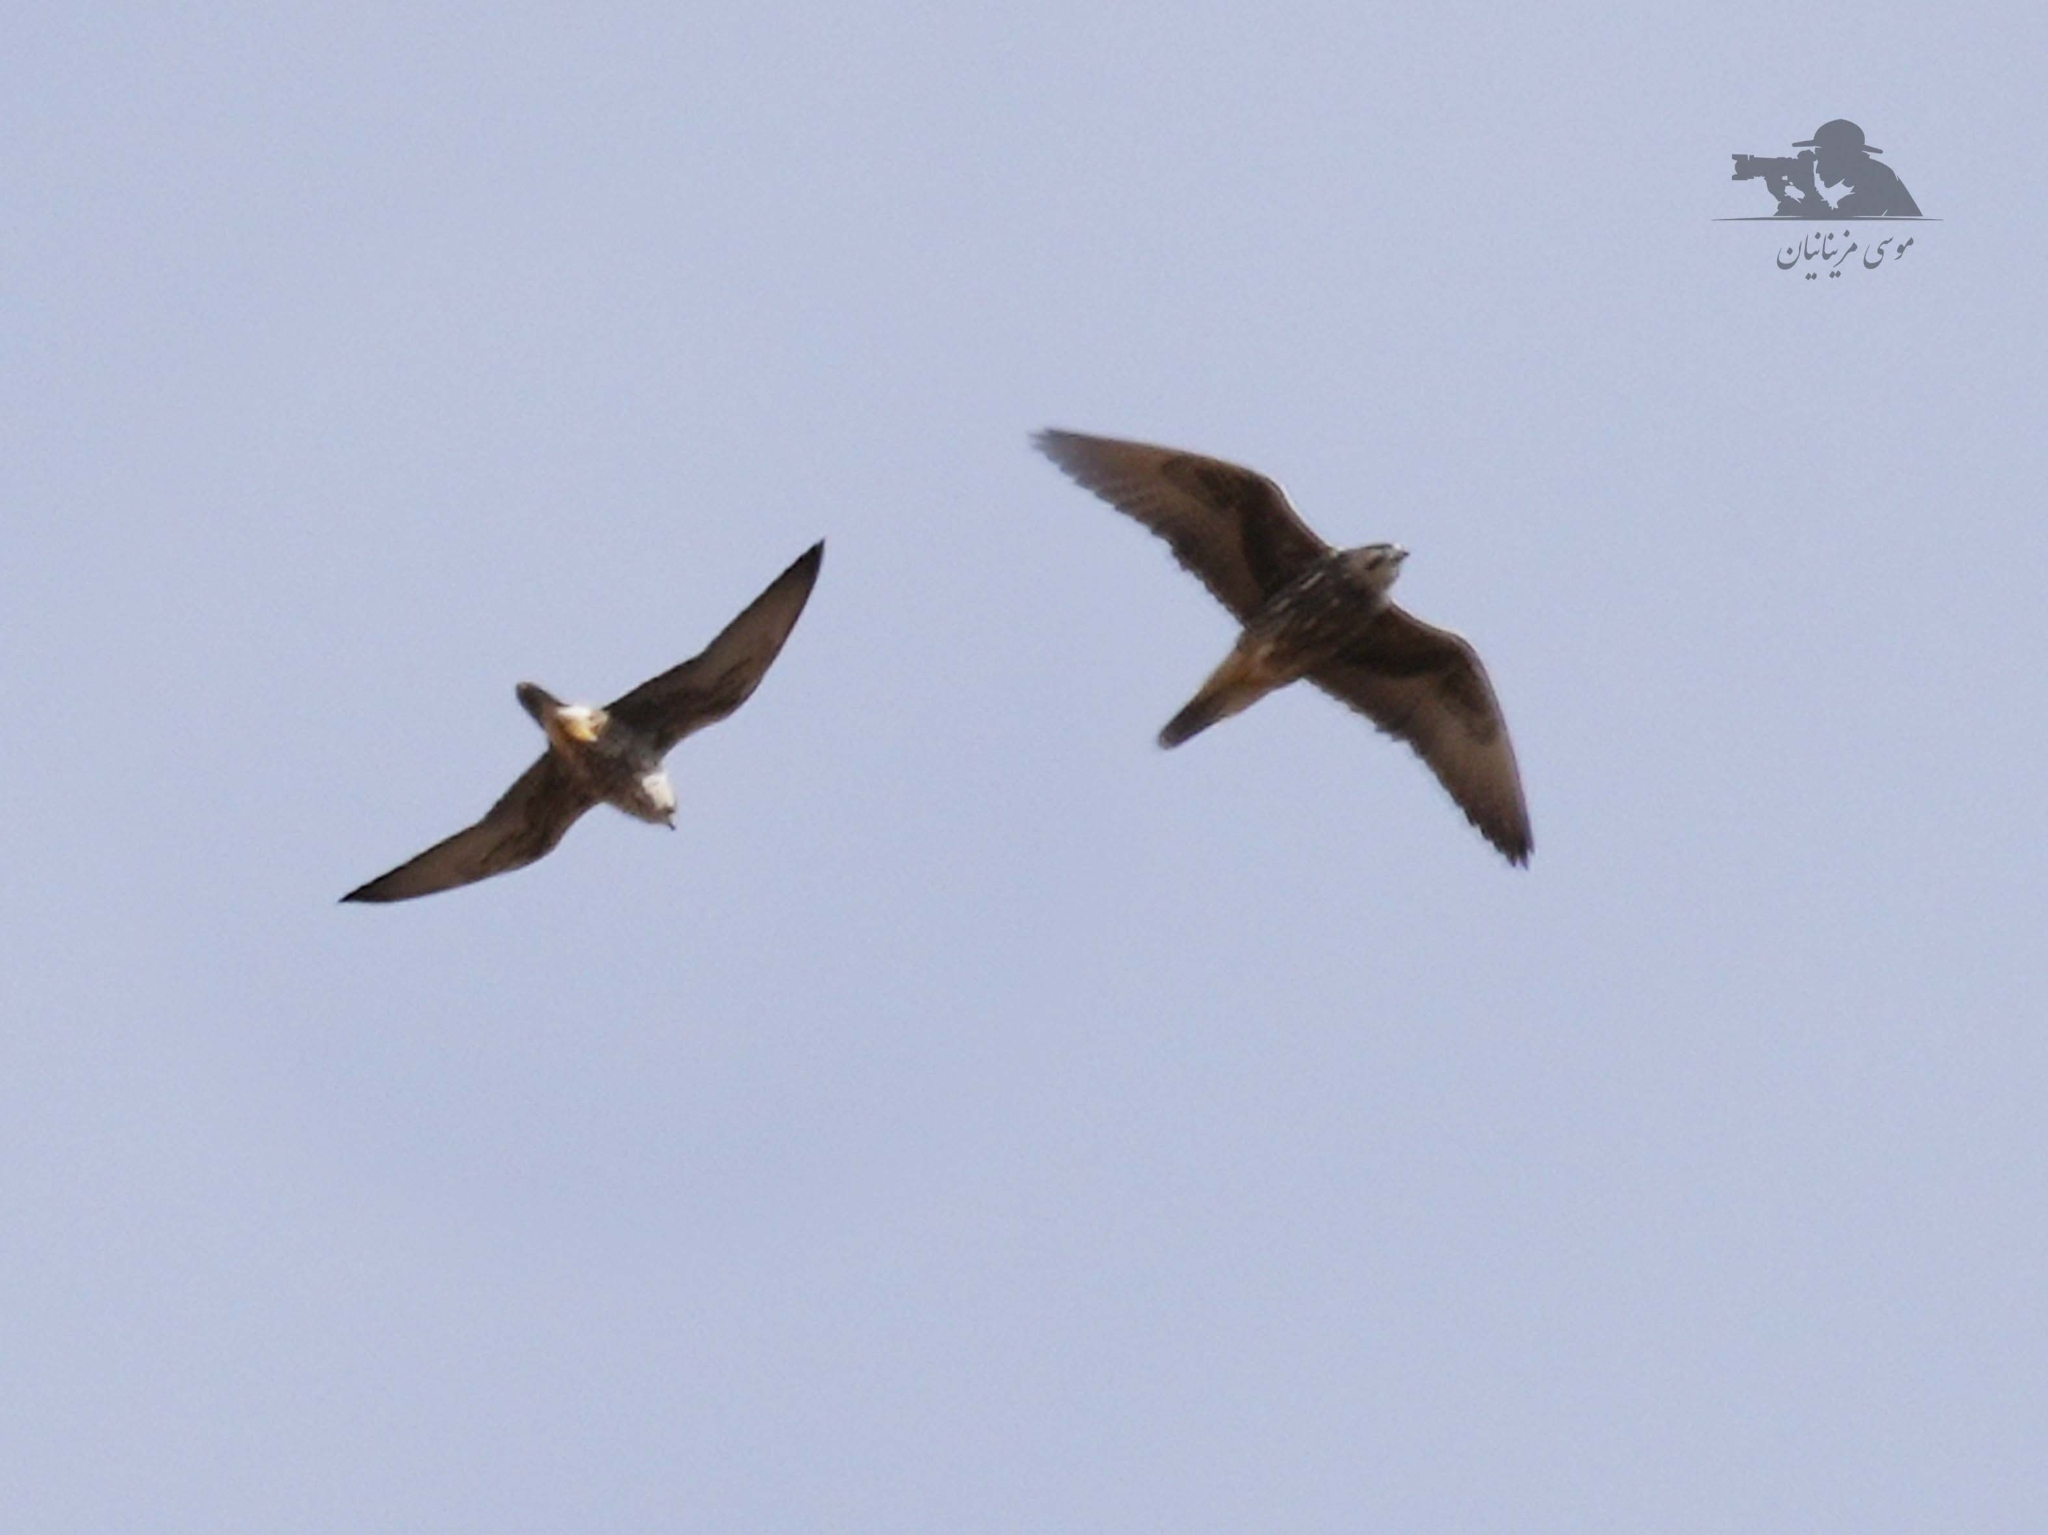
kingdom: Animalia
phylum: Chordata
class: Aves
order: Falconiformes
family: Falconidae
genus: Falco
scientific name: Falco cherrug
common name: Saker falcon
